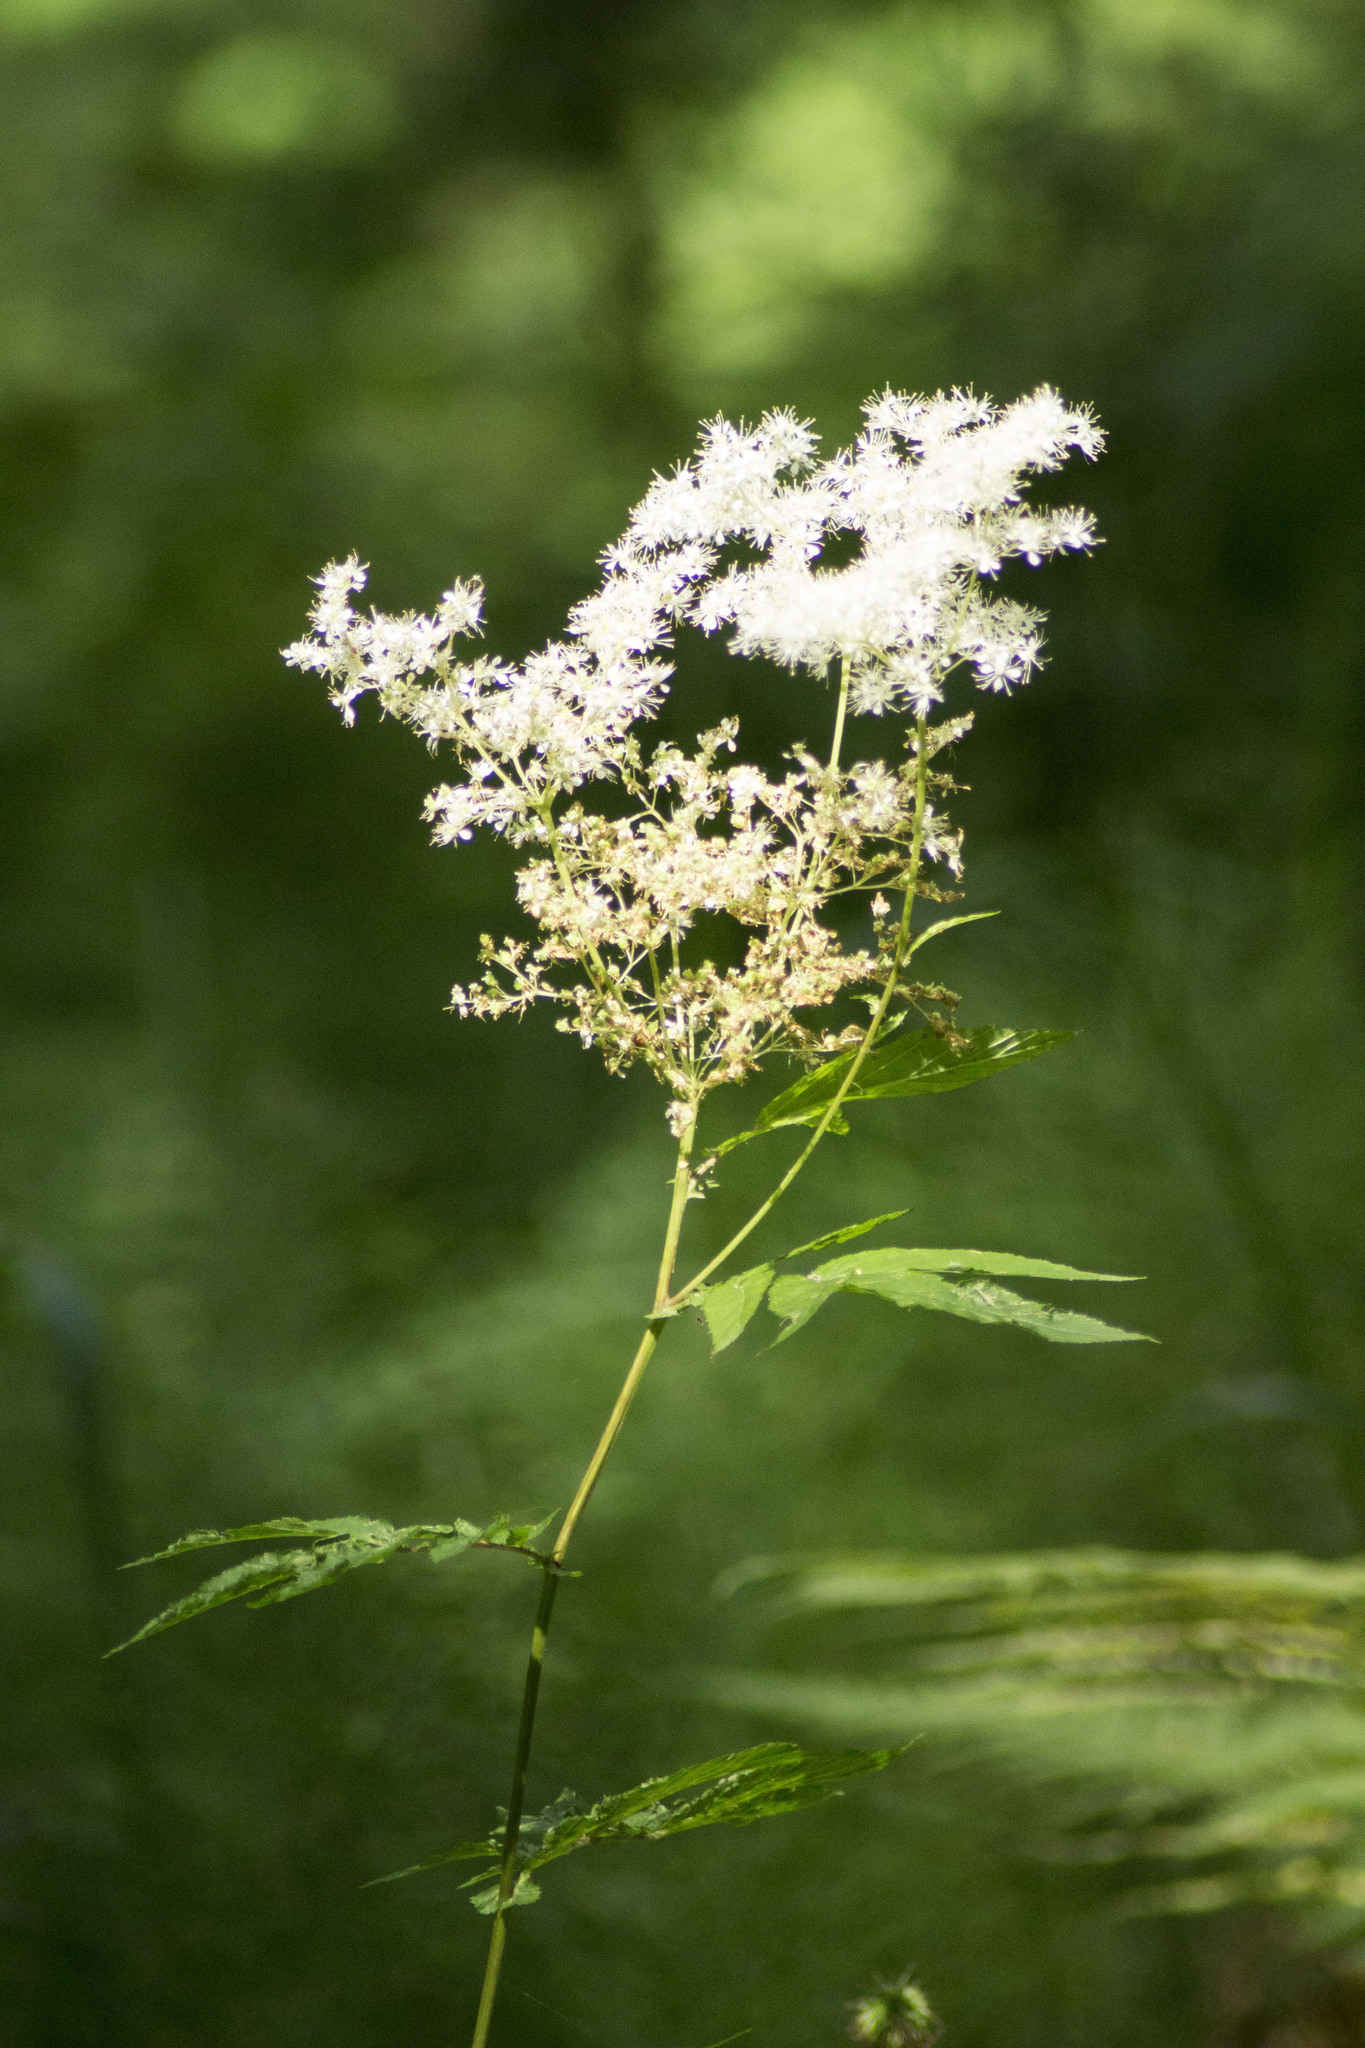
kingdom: Plantae
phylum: Tracheophyta
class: Magnoliopsida
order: Rosales
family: Rosaceae
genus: Filipendula
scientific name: Filipendula ulmaria
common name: Meadowsweet
